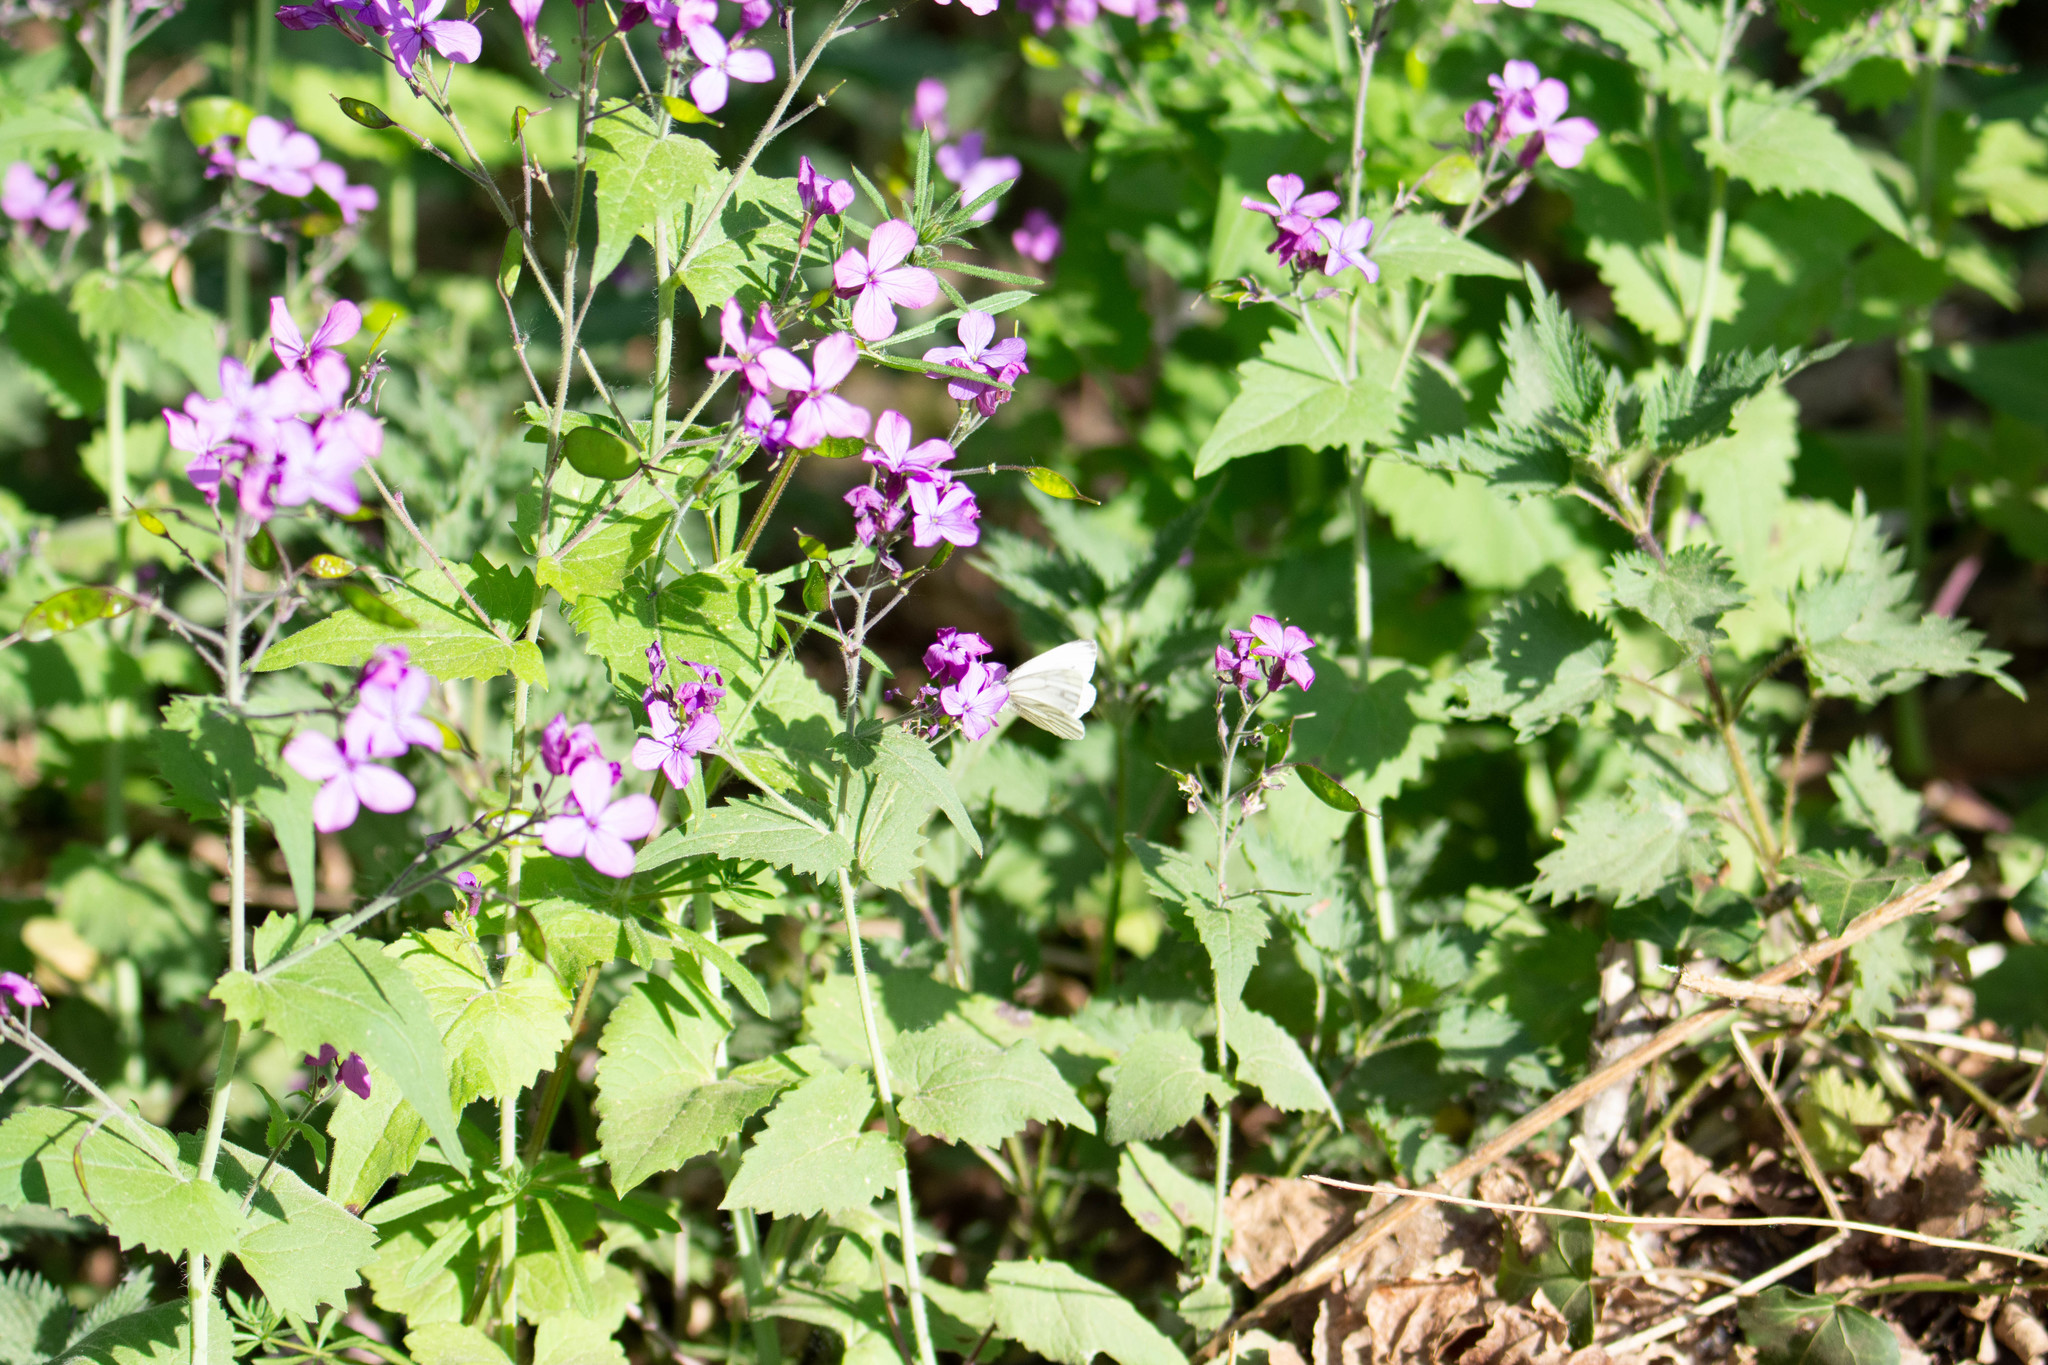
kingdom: Animalia
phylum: Arthropoda
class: Insecta
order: Lepidoptera
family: Pieridae
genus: Pieris
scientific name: Pieris napi
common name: Green-veined white
